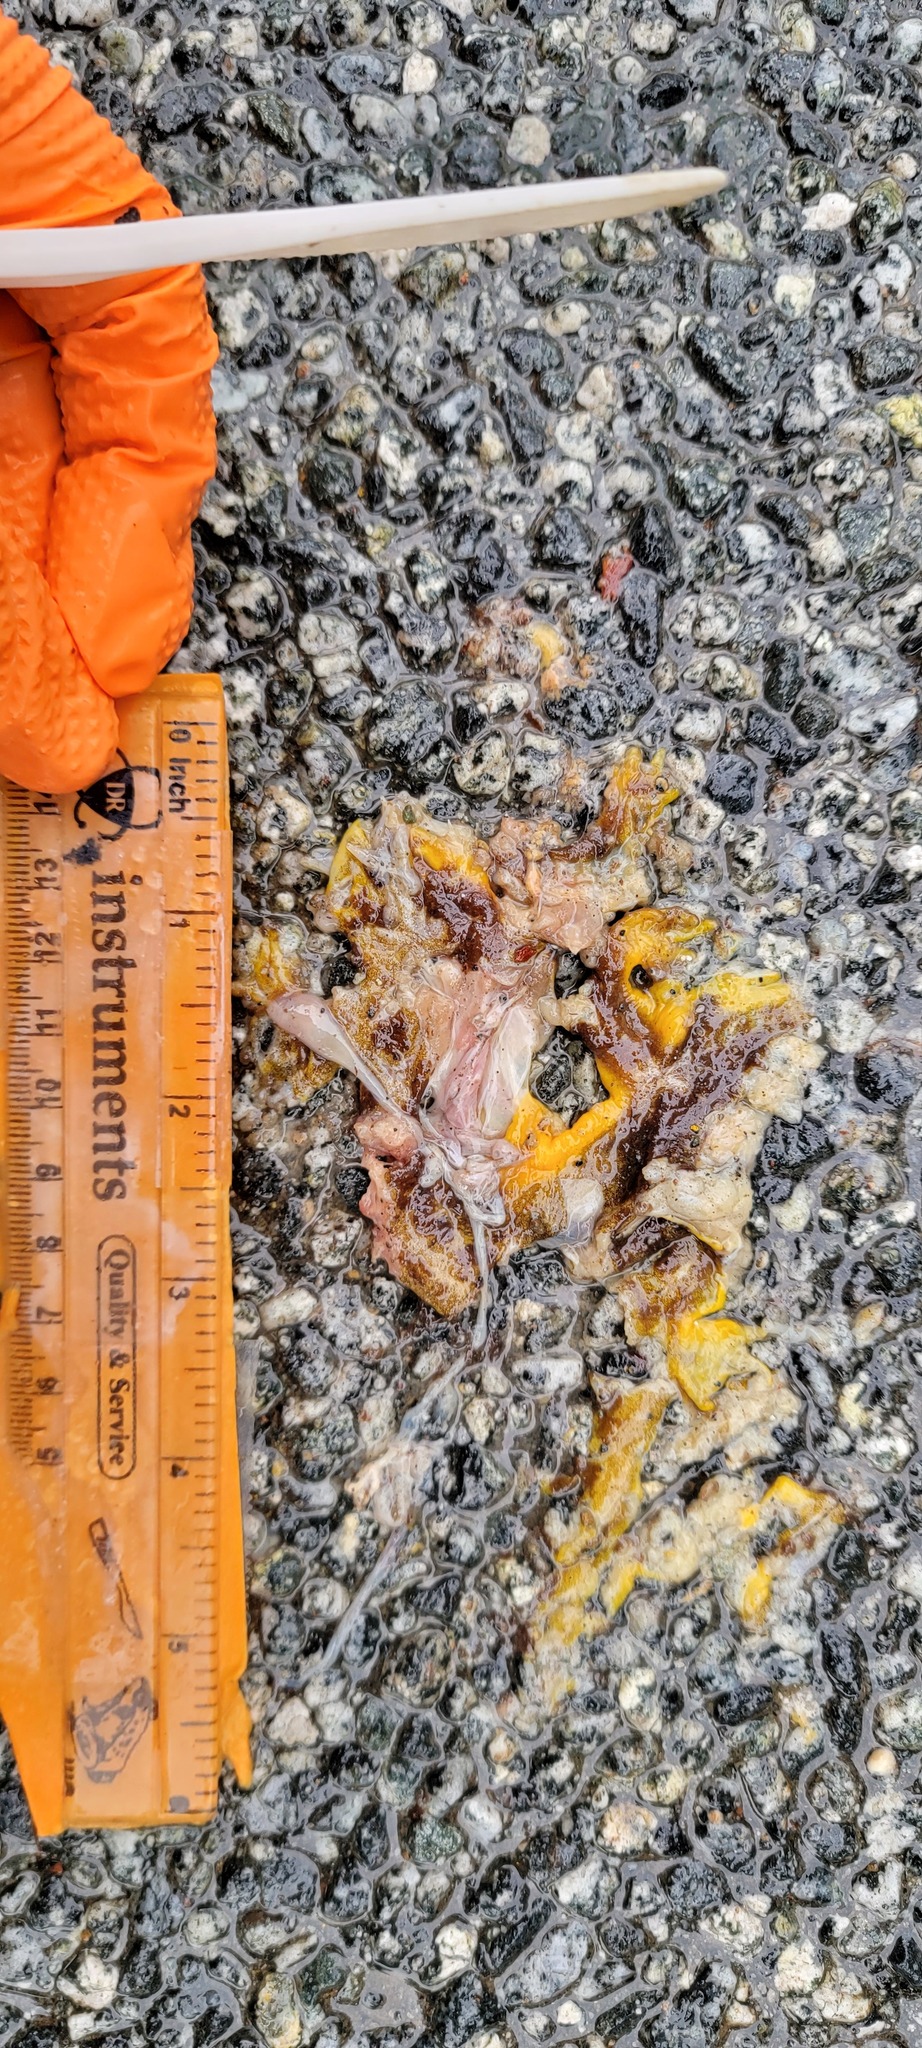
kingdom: Animalia
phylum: Chordata
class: Amphibia
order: Caudata
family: Salamandridae
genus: Taricha
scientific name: Taricha
